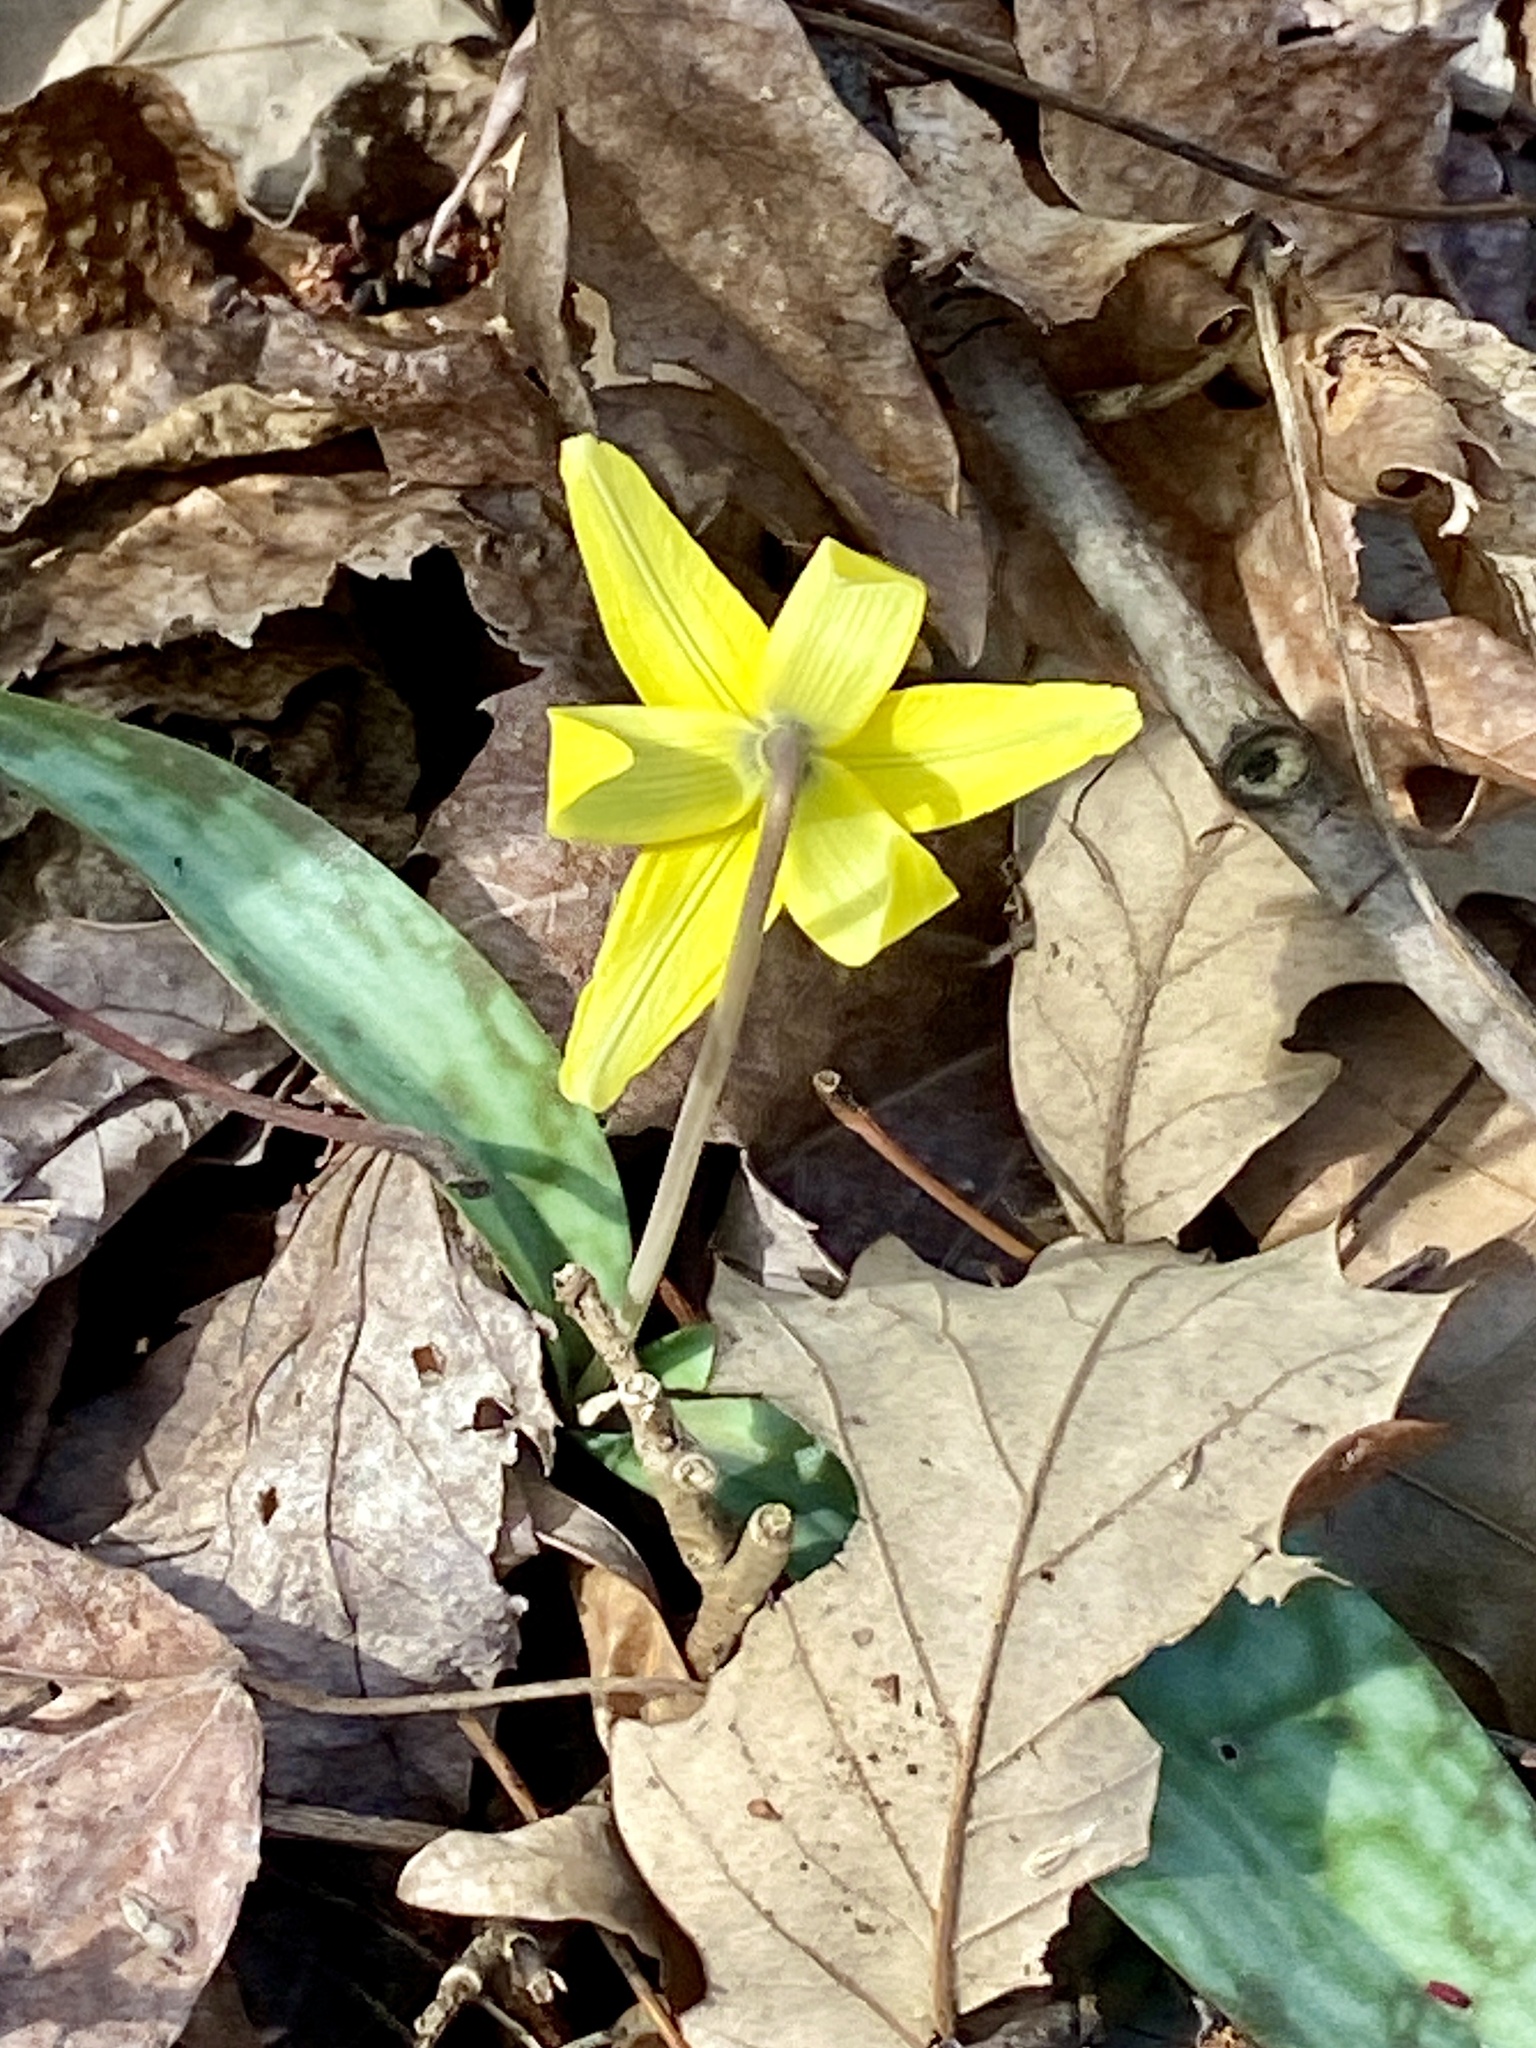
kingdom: Plantae
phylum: Tracheophyta
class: Liliopsida
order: Liliales
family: Liliaceae
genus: Erythronium
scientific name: Erythronium americanum
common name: Yellow adder's-tongue
